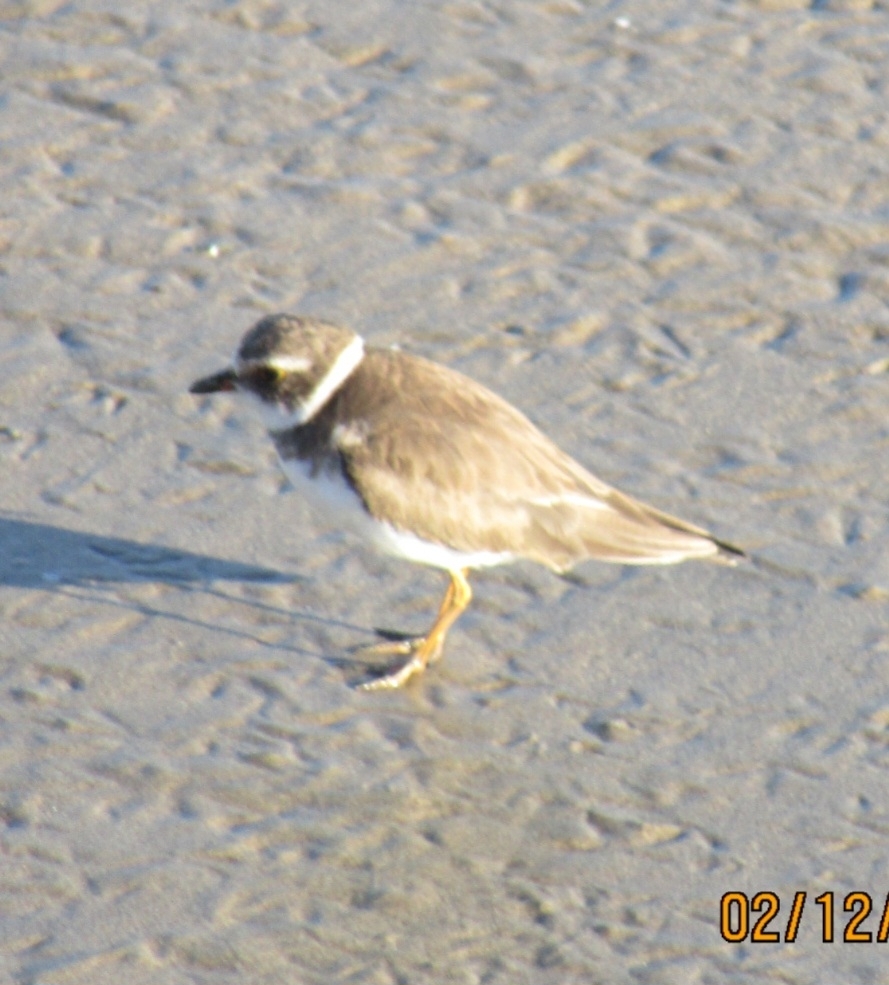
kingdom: Animalia
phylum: Chordata
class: Aves
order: Charadriiformes
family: Charadriidae
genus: Charadrius
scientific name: Charadrius semipalmatus
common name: Semipalmated plover
